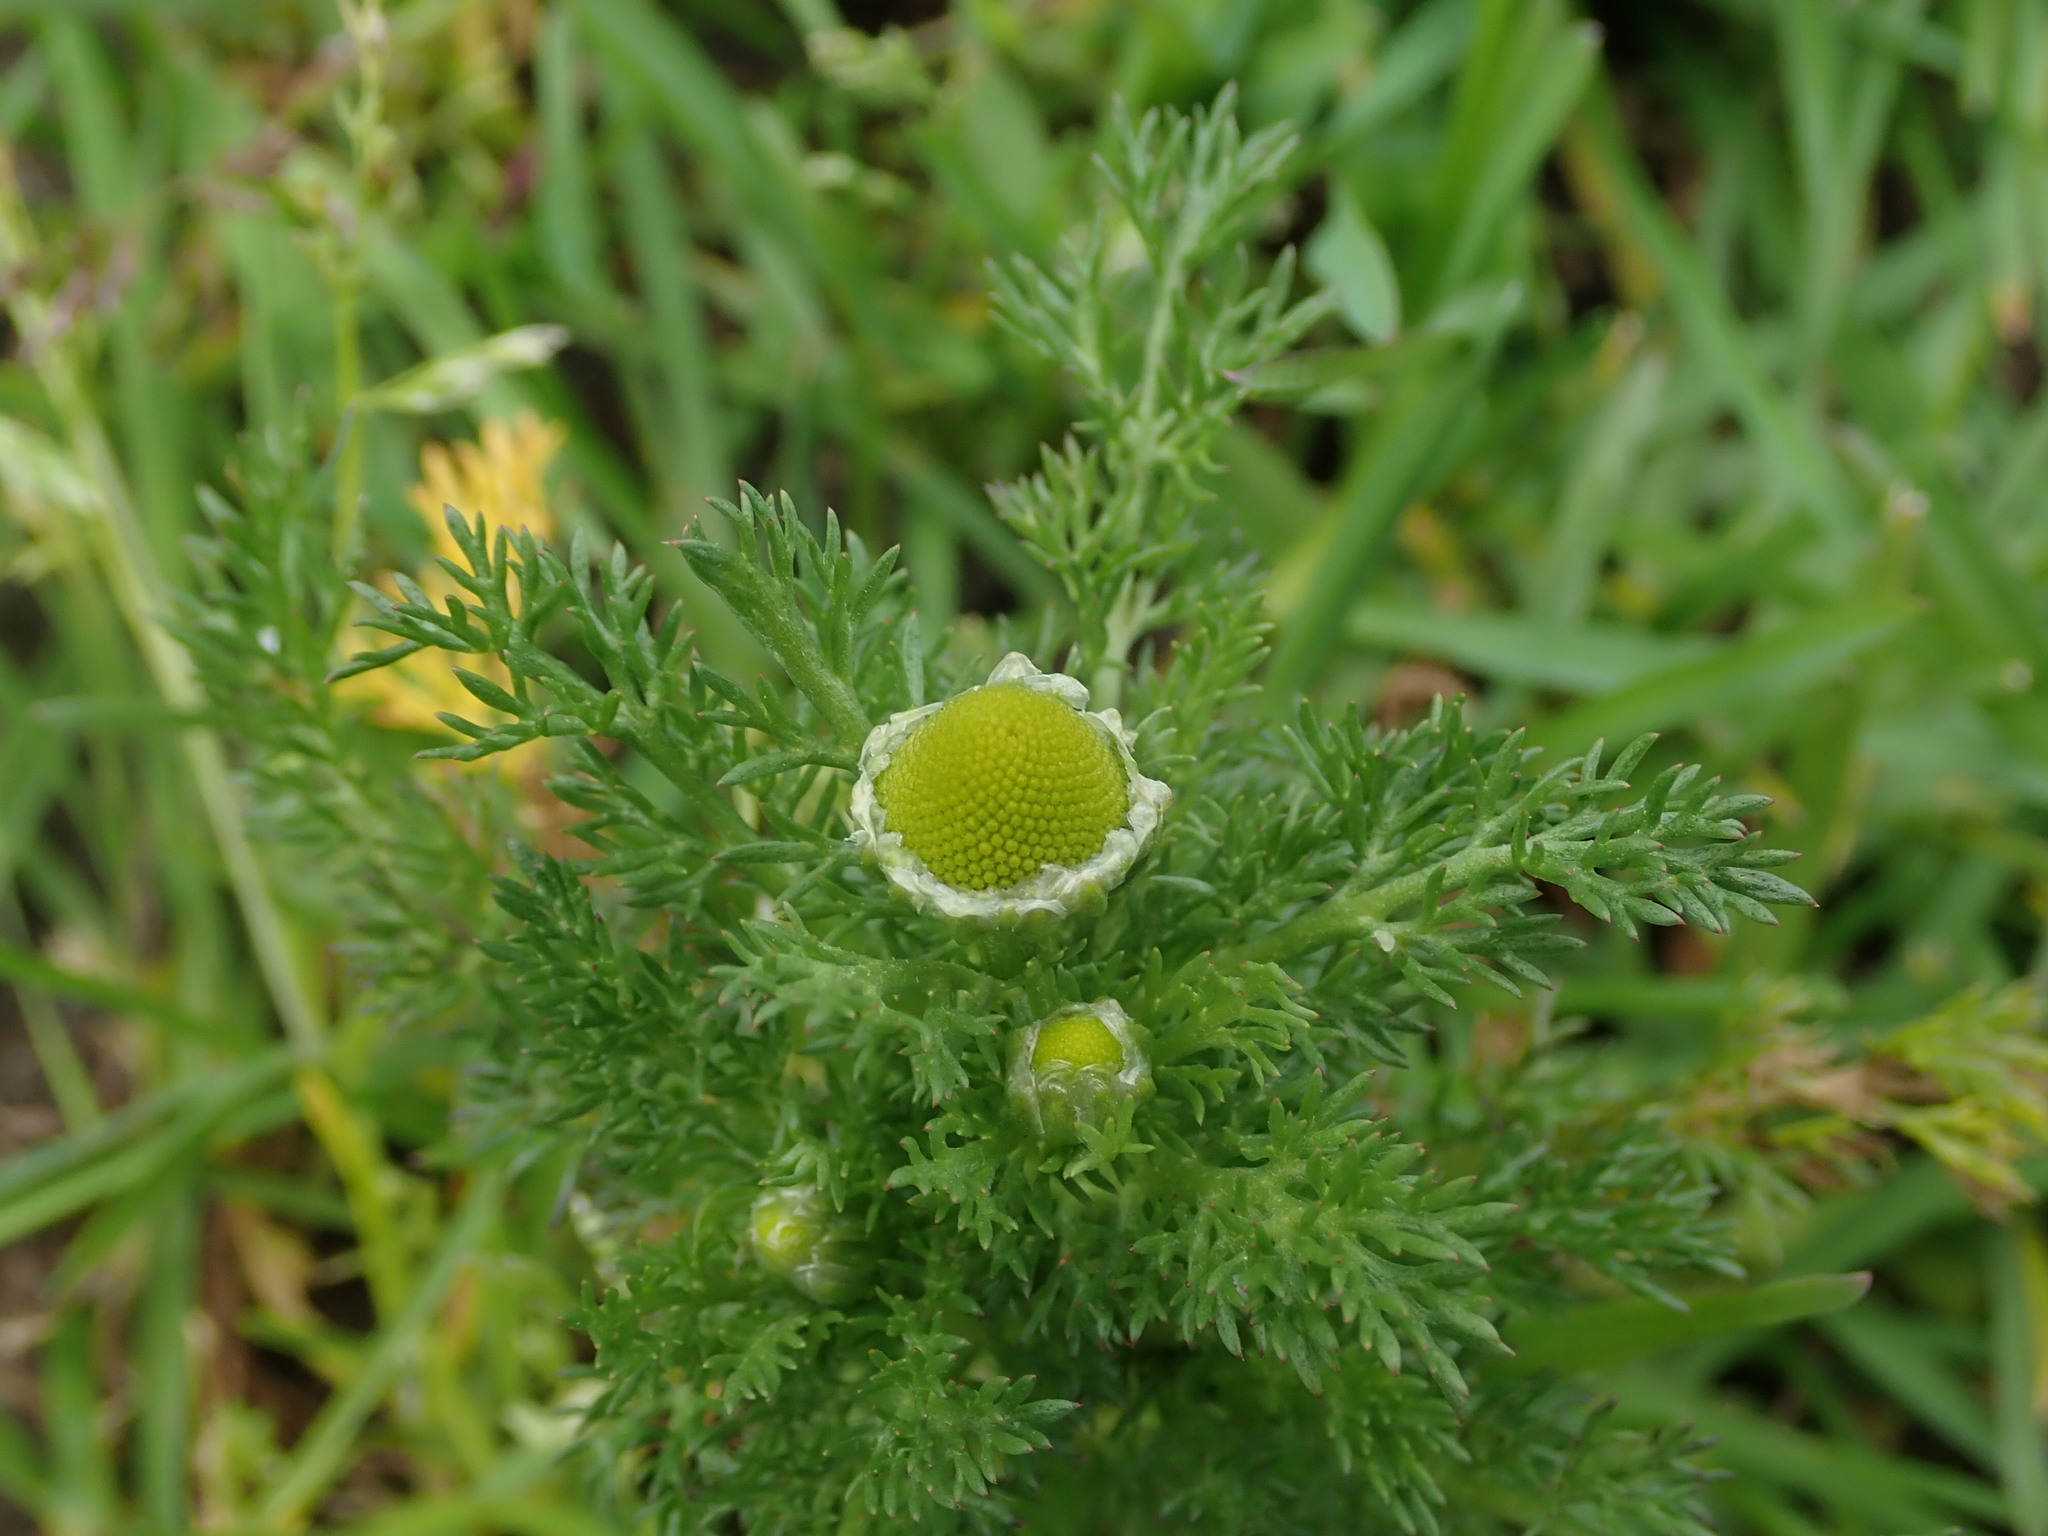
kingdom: Plantae
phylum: Tracheophyta
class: Magnoliopsida
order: Asterales
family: Asteraceae
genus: Matricaria
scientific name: Matricaria discoidea
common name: Disc mayweed
